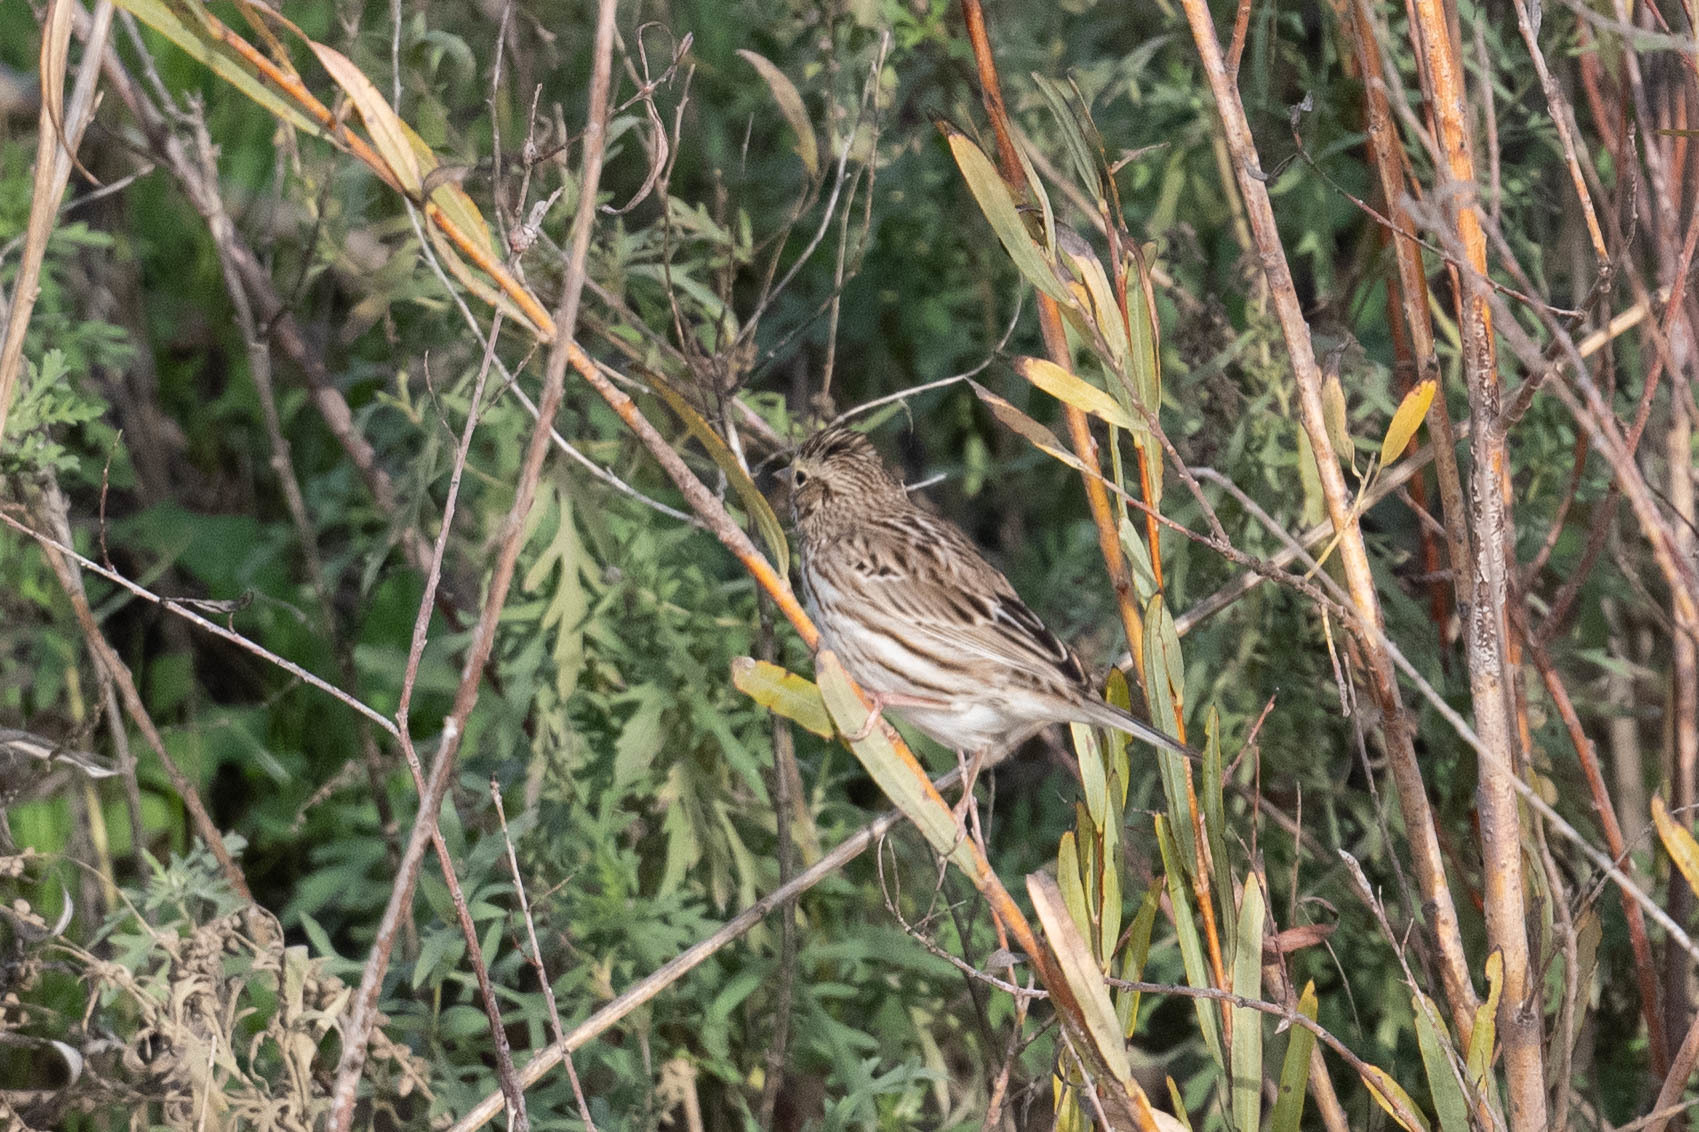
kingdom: Animalia
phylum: Chordata
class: Aves
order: Passeriformes
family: Passerellidae
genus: Passerculus
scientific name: Passerculus sandwichensis
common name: Savannah sparrow
